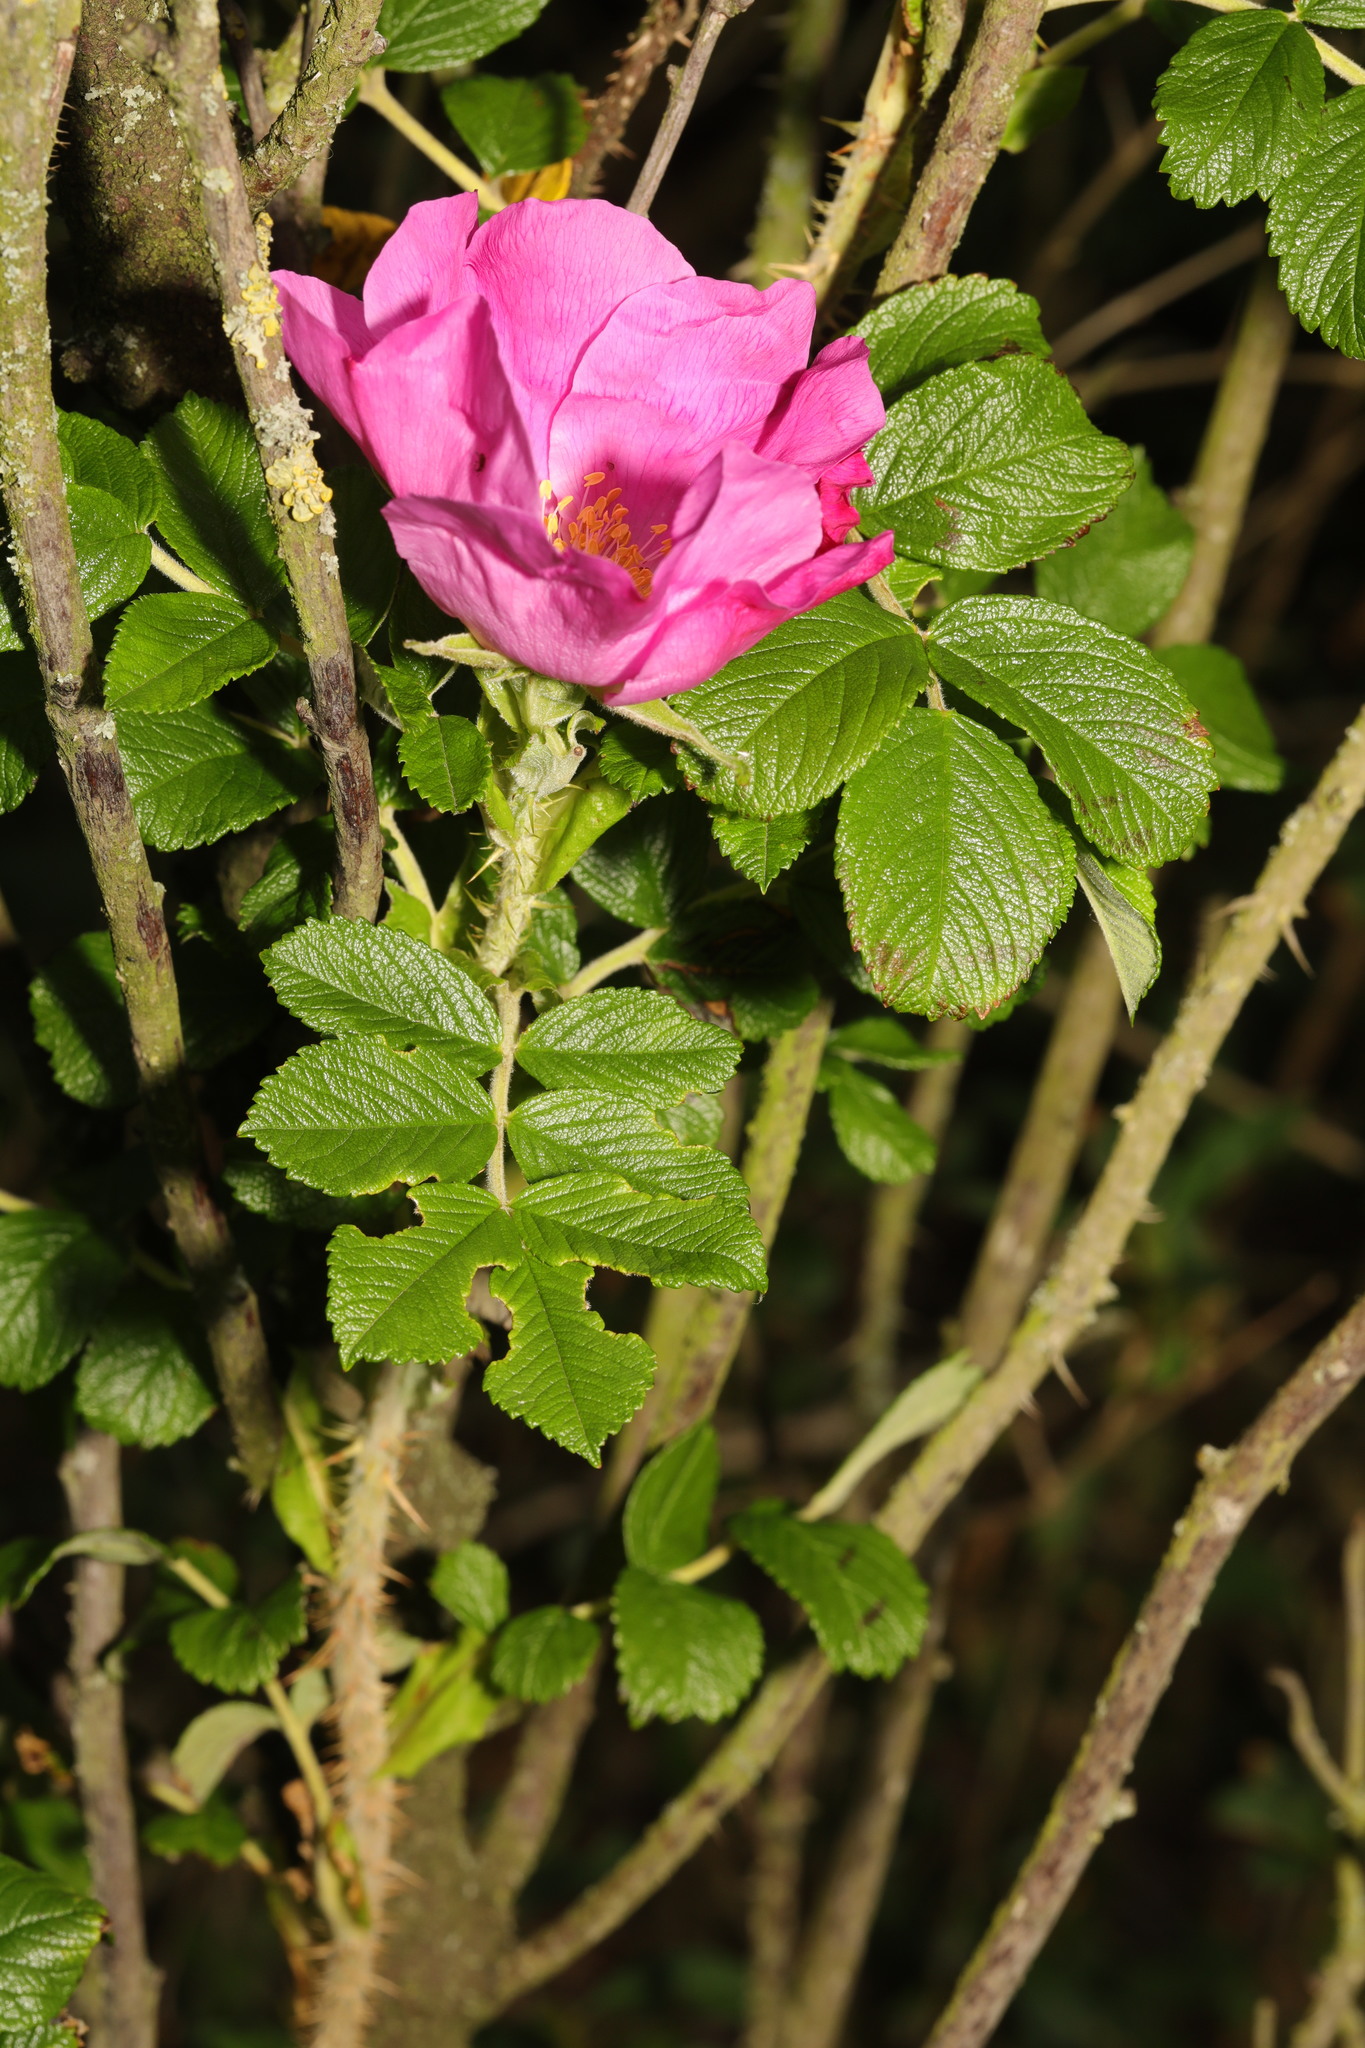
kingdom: Plantae
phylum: Tracheophyta
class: Magnoliopsida
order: Rosales
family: Rosaceae
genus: Rosa
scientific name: Rosa rugosa
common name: Japanese rose
